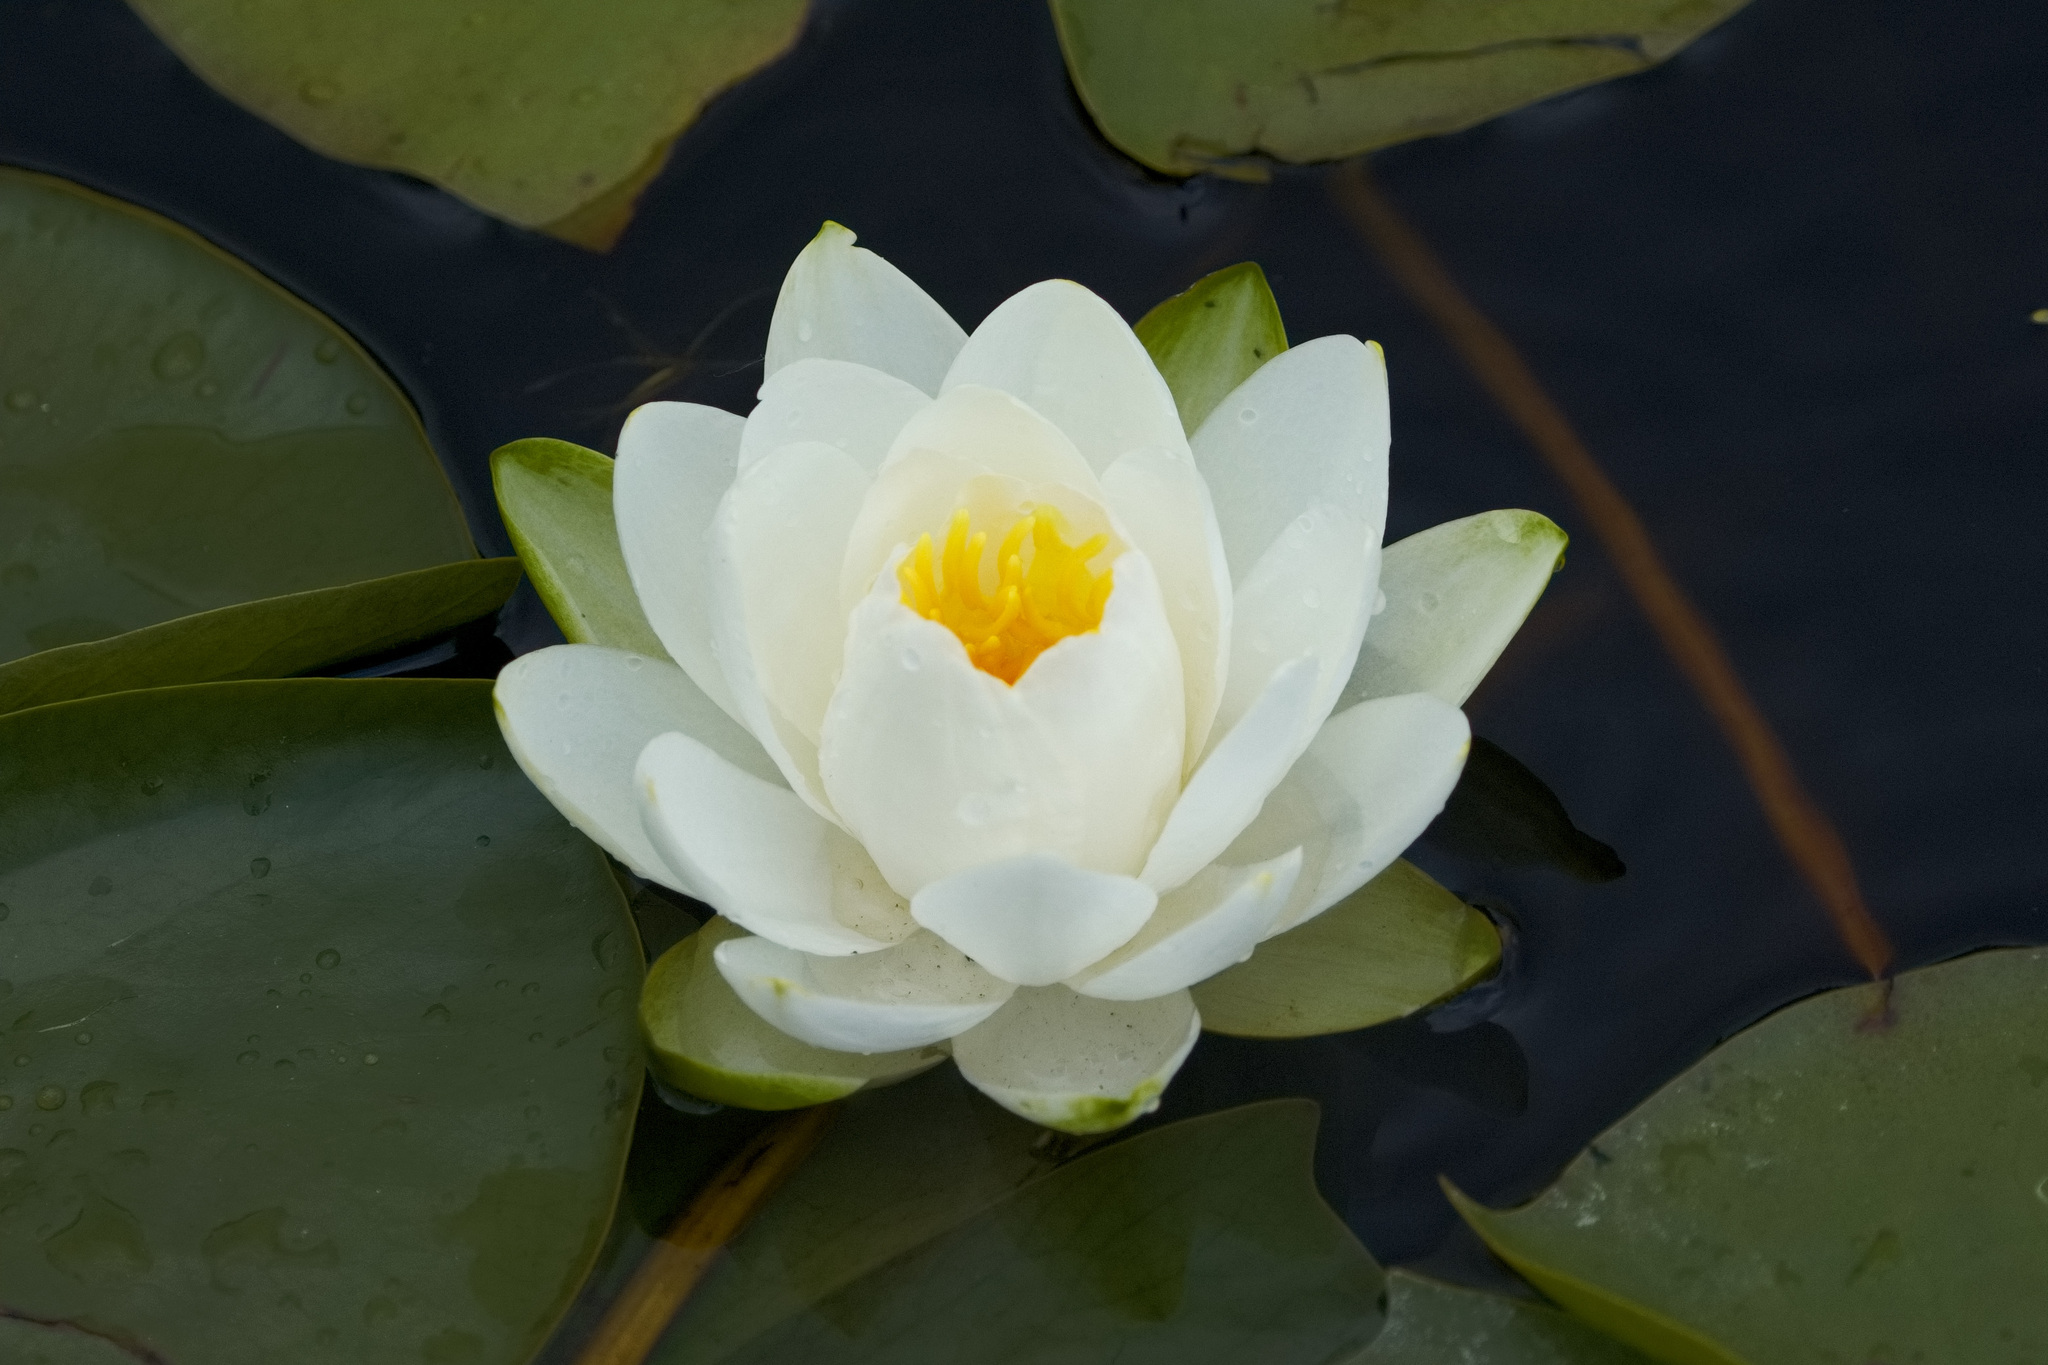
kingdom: Plantae
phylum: Tracheophyta
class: Magnoliopsida
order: Nymphaeales
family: Nymphaeaceae
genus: Nymphaea
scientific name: Nymphaea odorata
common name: Fragrant water-lily
